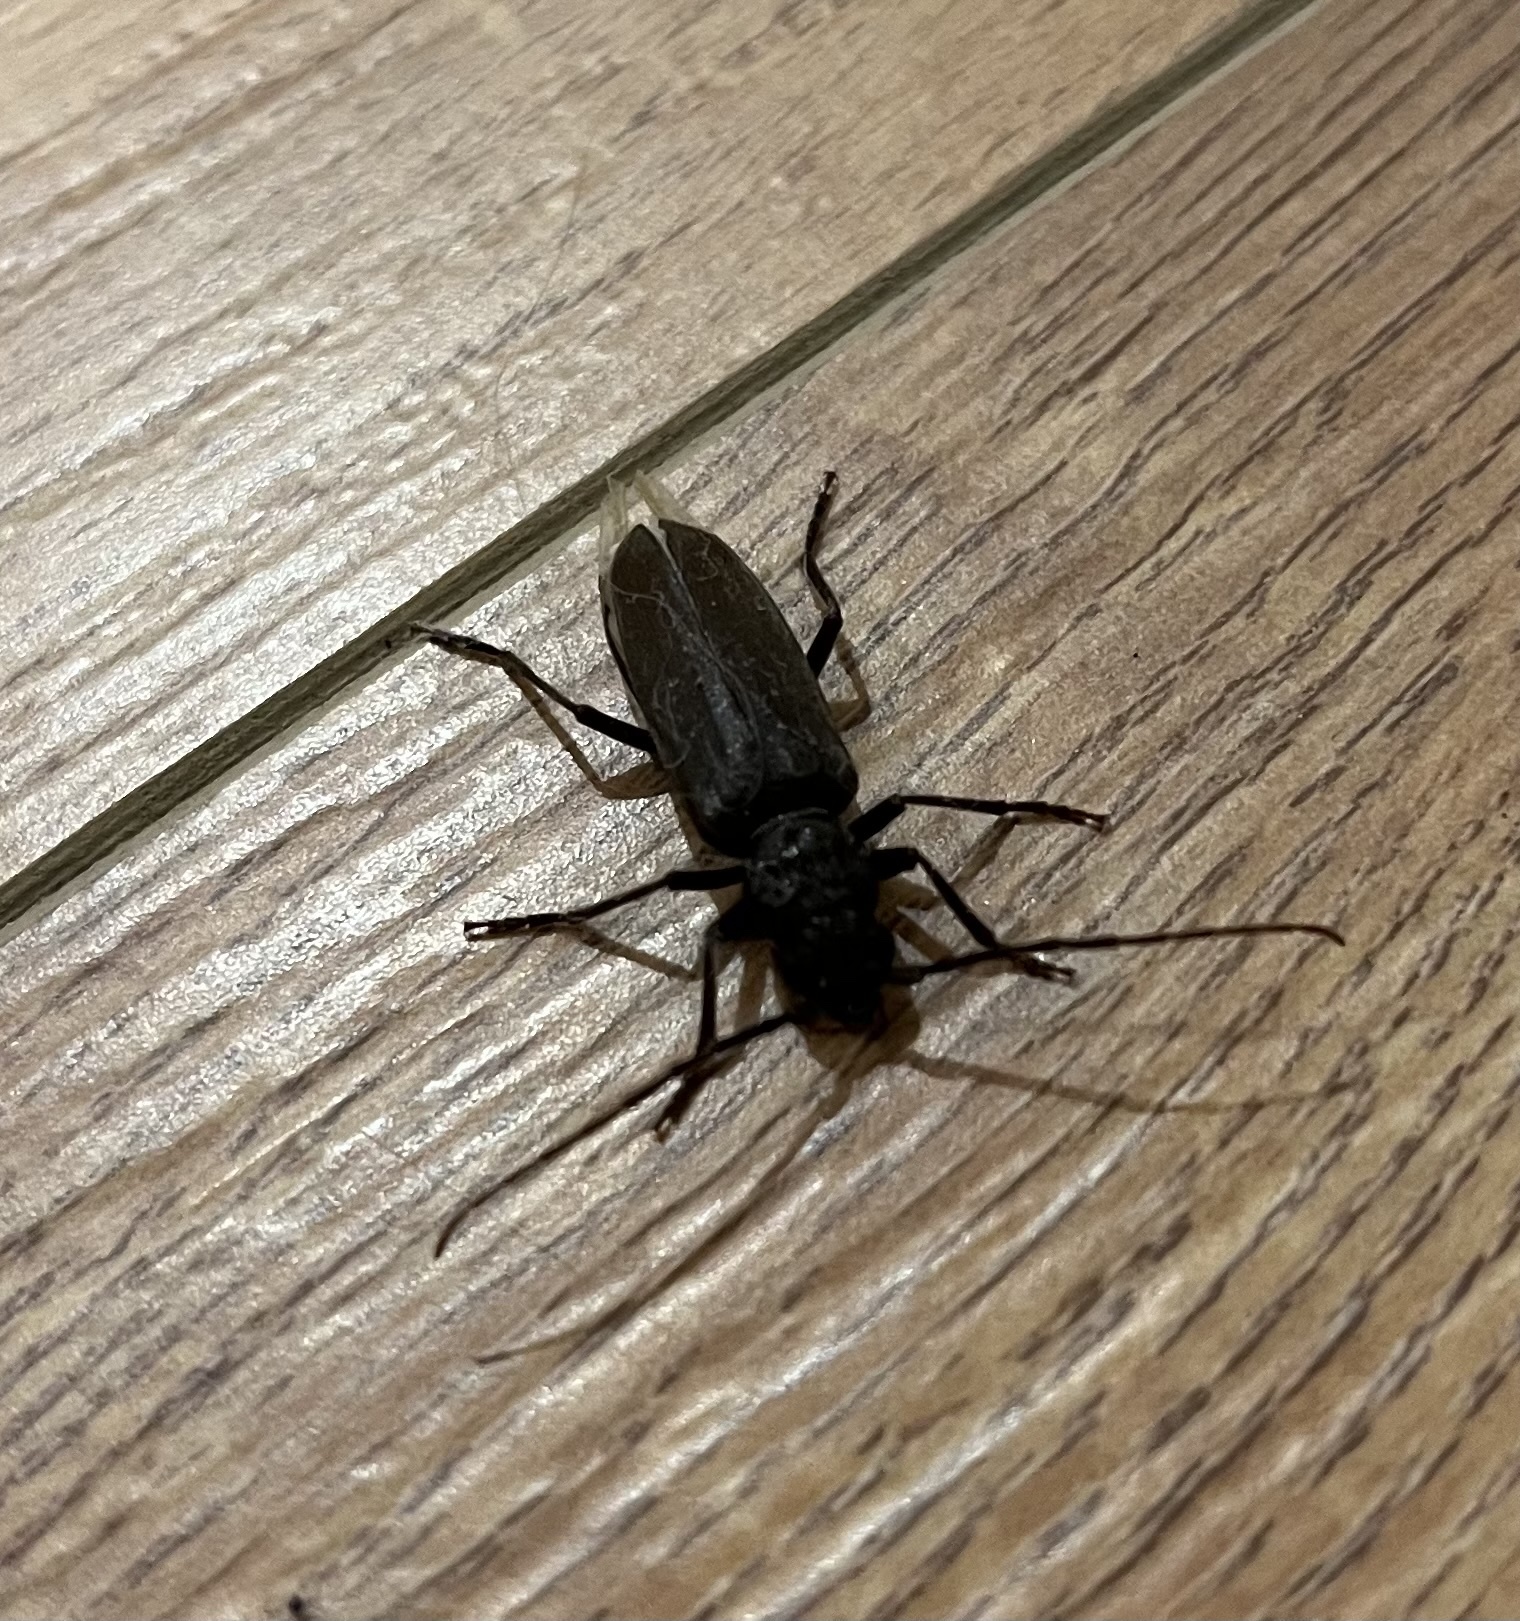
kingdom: Animalia
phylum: Arthropoda
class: Insecta
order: Coleoptera
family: Cerambycidae
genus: Arhopalus
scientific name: Arhopalus ferus
